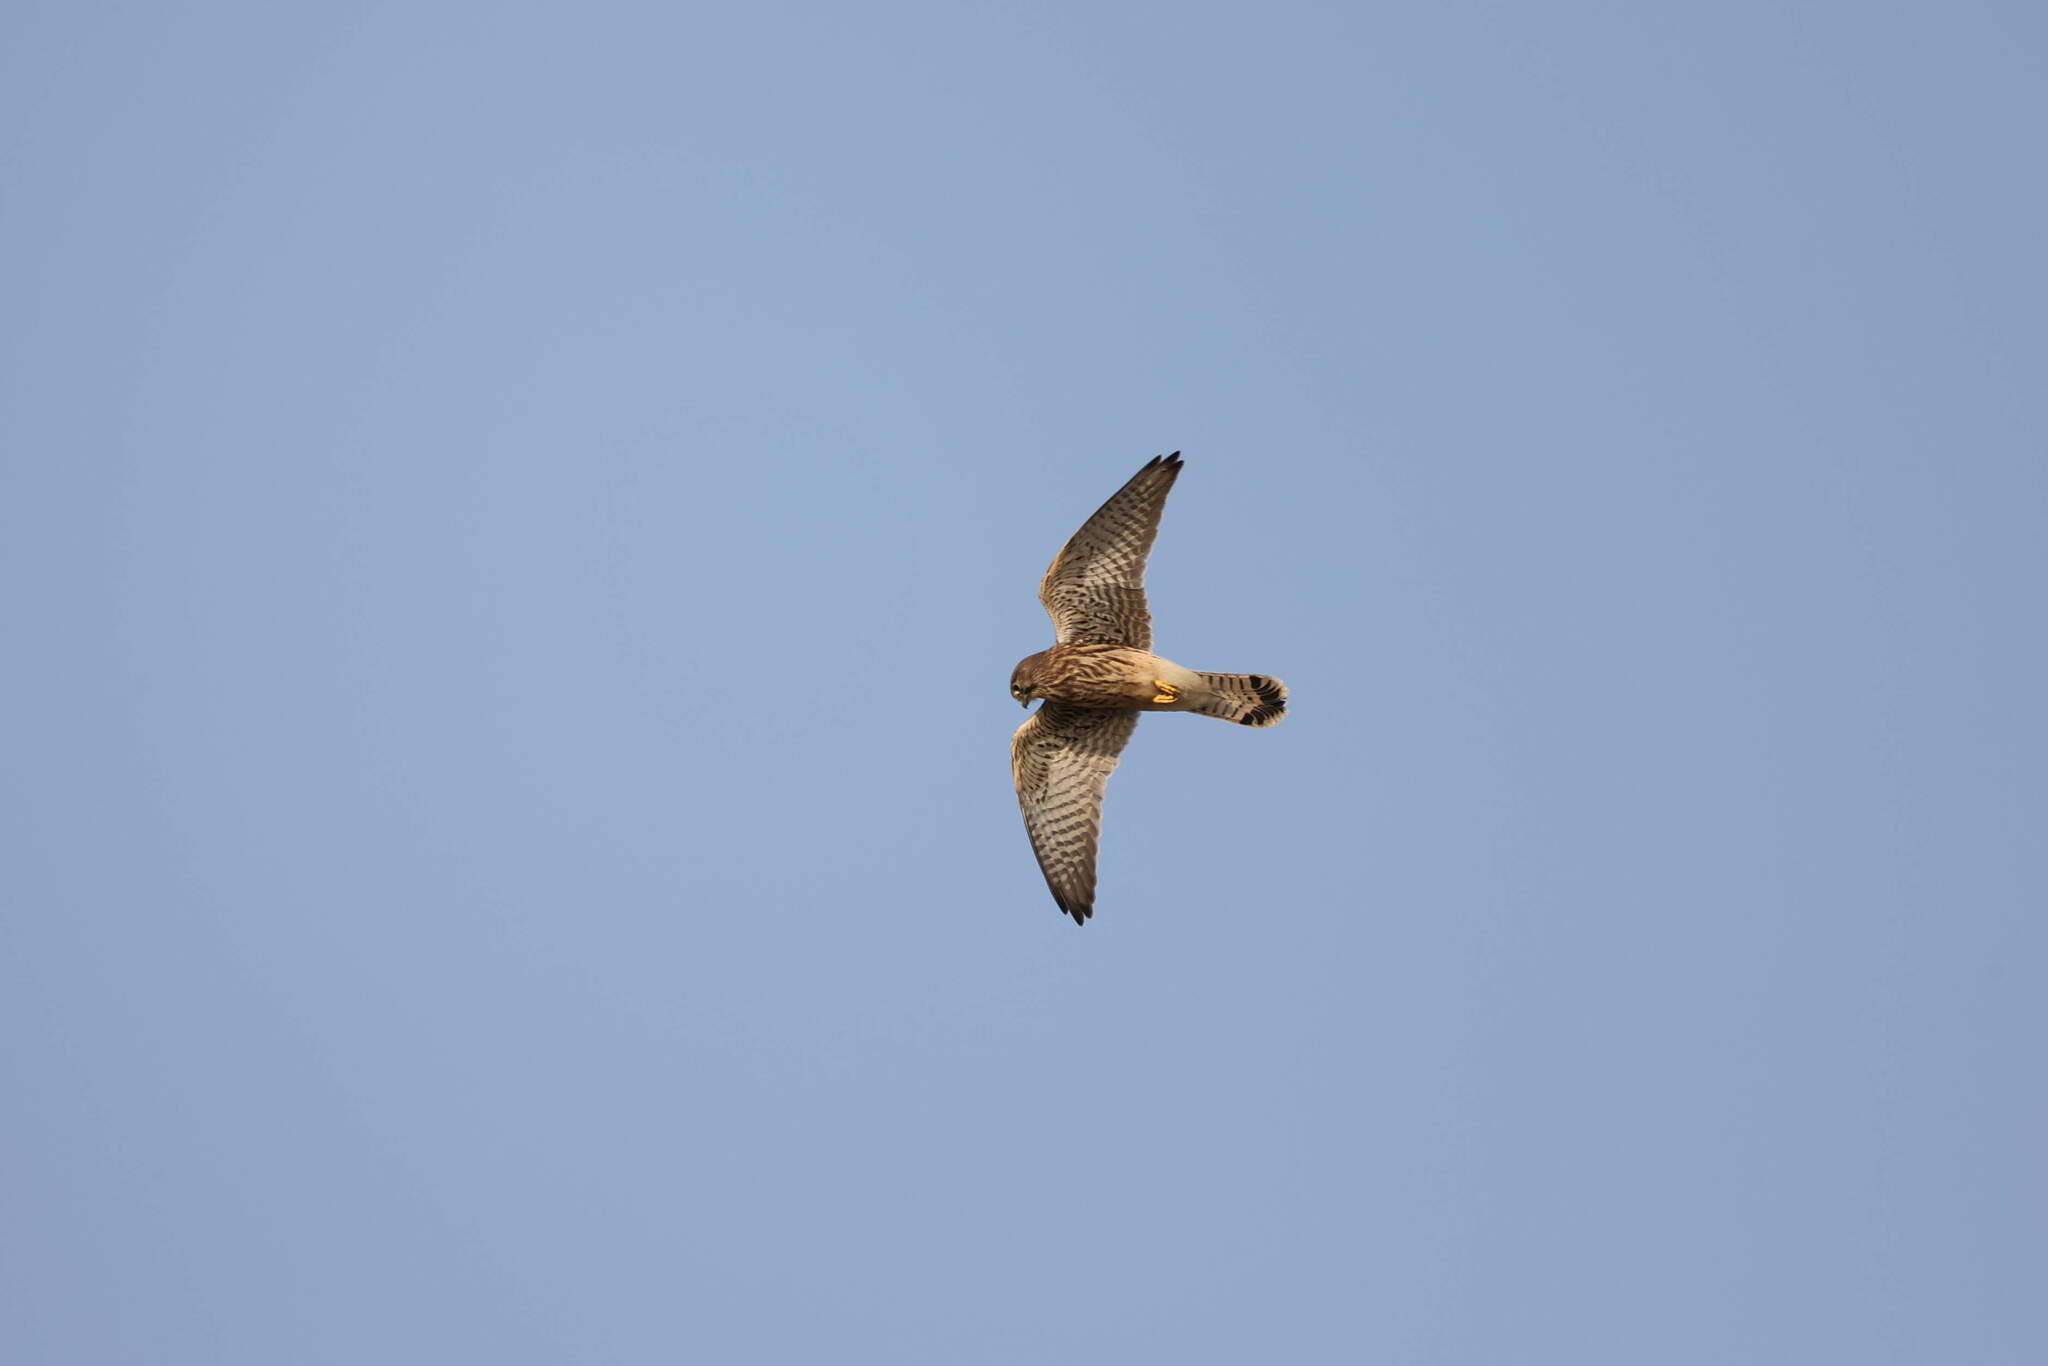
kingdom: Animalia
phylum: Chordata
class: Aves
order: Falconiformes
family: Falconidae
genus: Falco
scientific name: Falco tinnunculus
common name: Common kestrel
